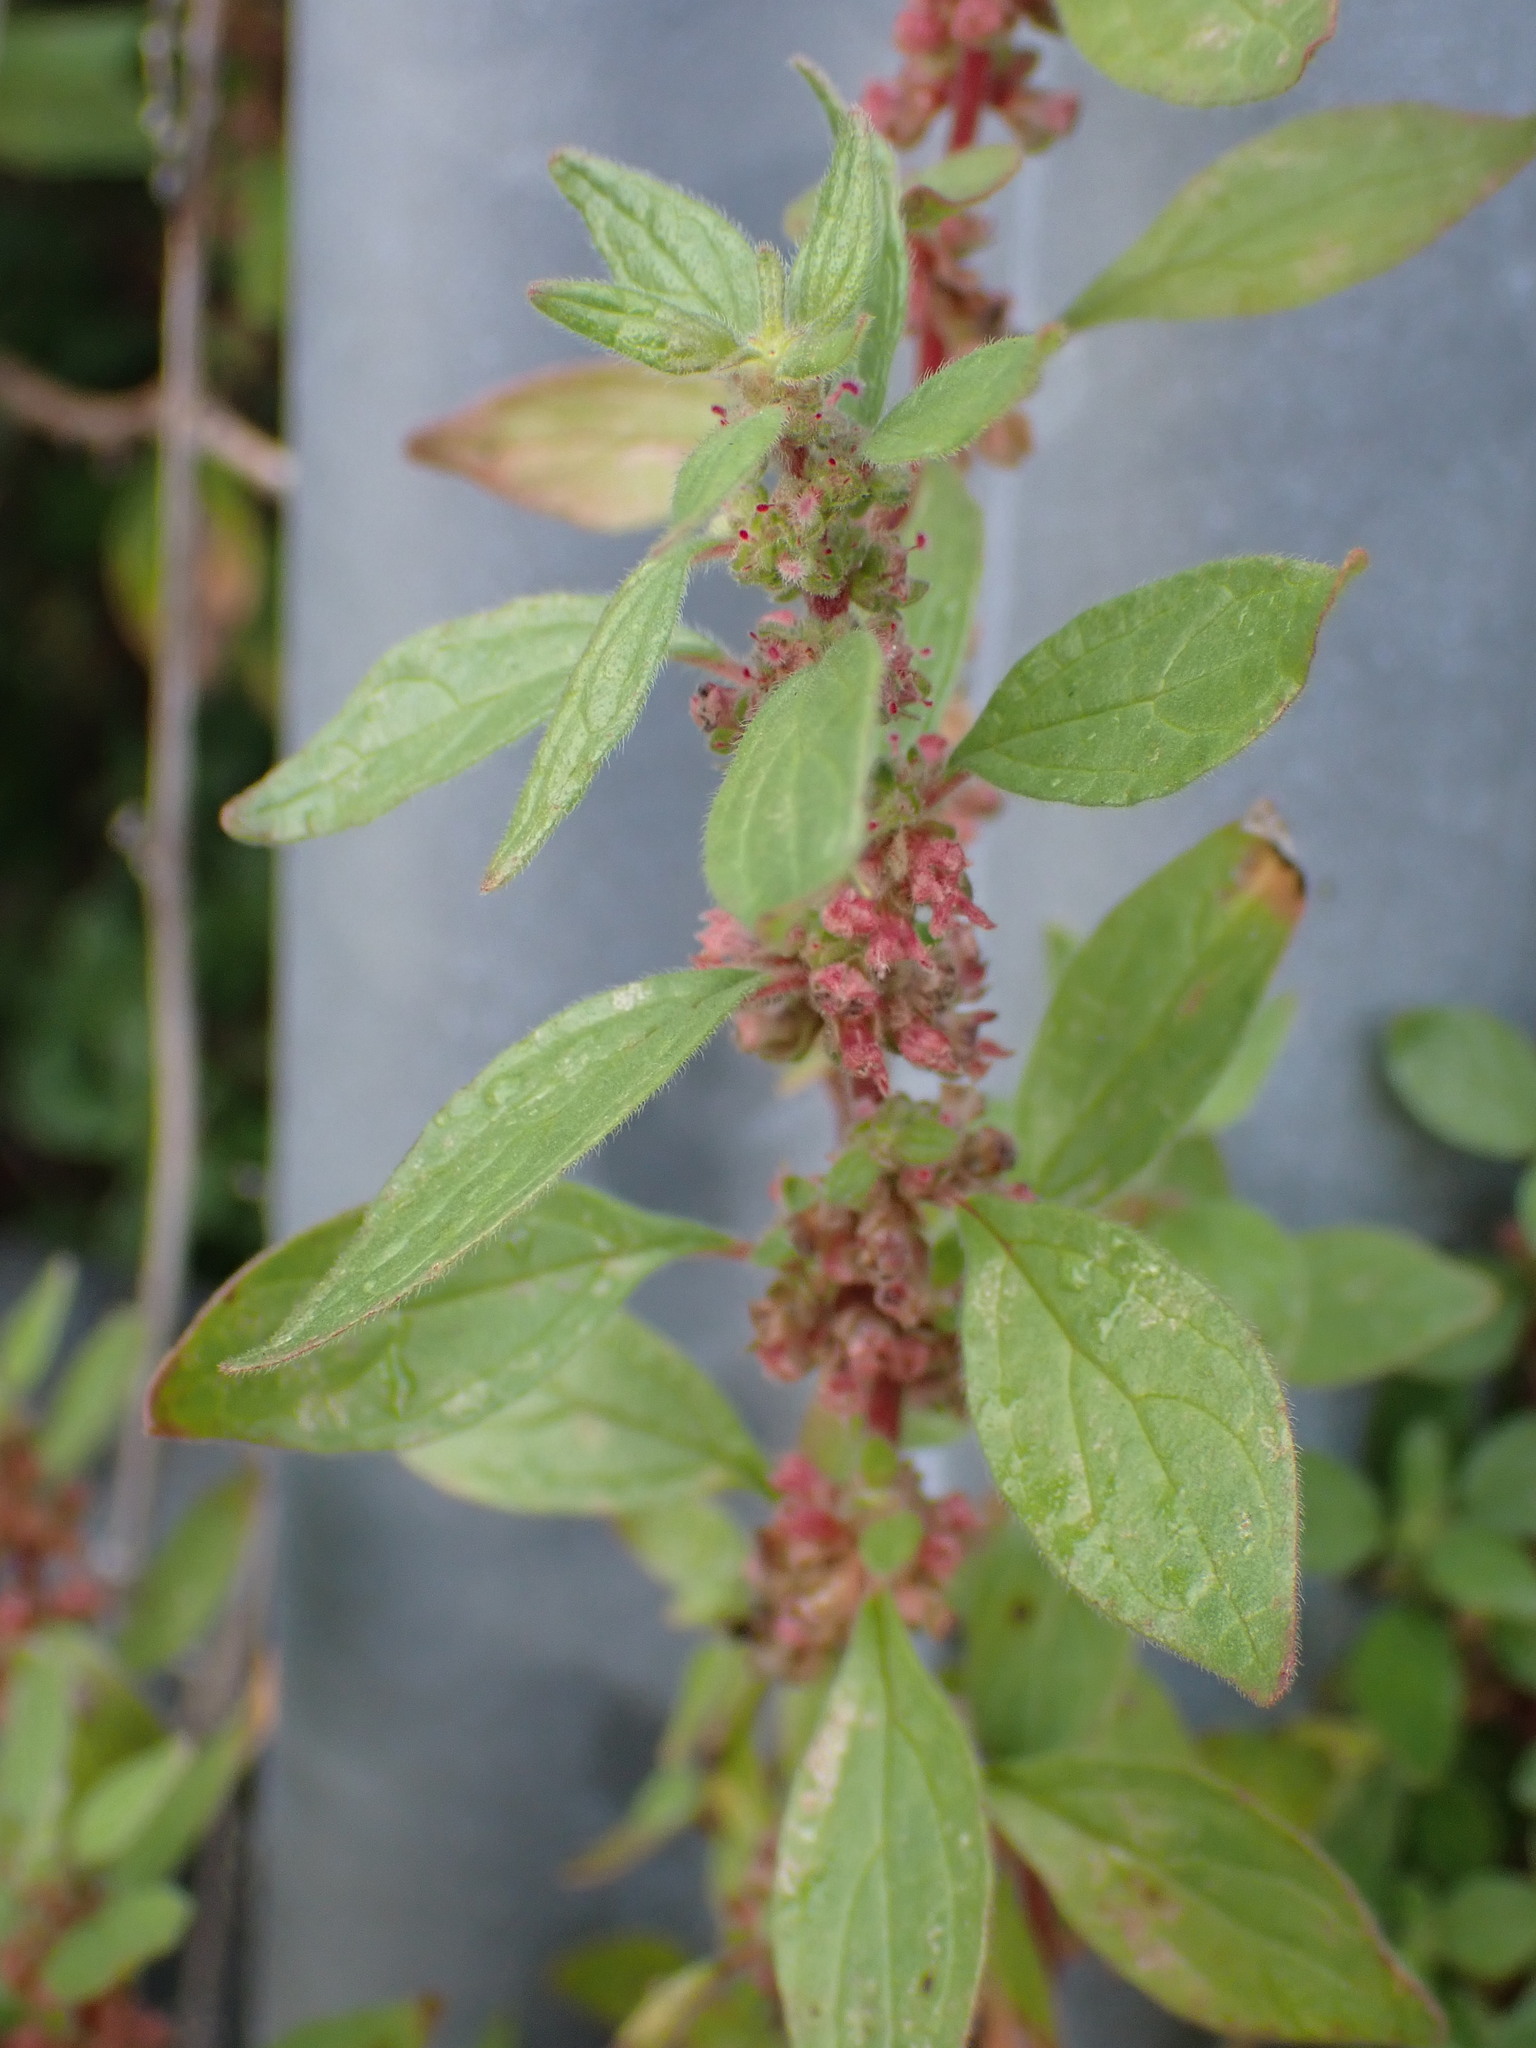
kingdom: Plantae
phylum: Tracheophyta
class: Magnoliopsida
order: Rosales
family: Urticaceae
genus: Parietaria
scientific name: Parietaria judaica
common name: Pellitory-of-the-wall
